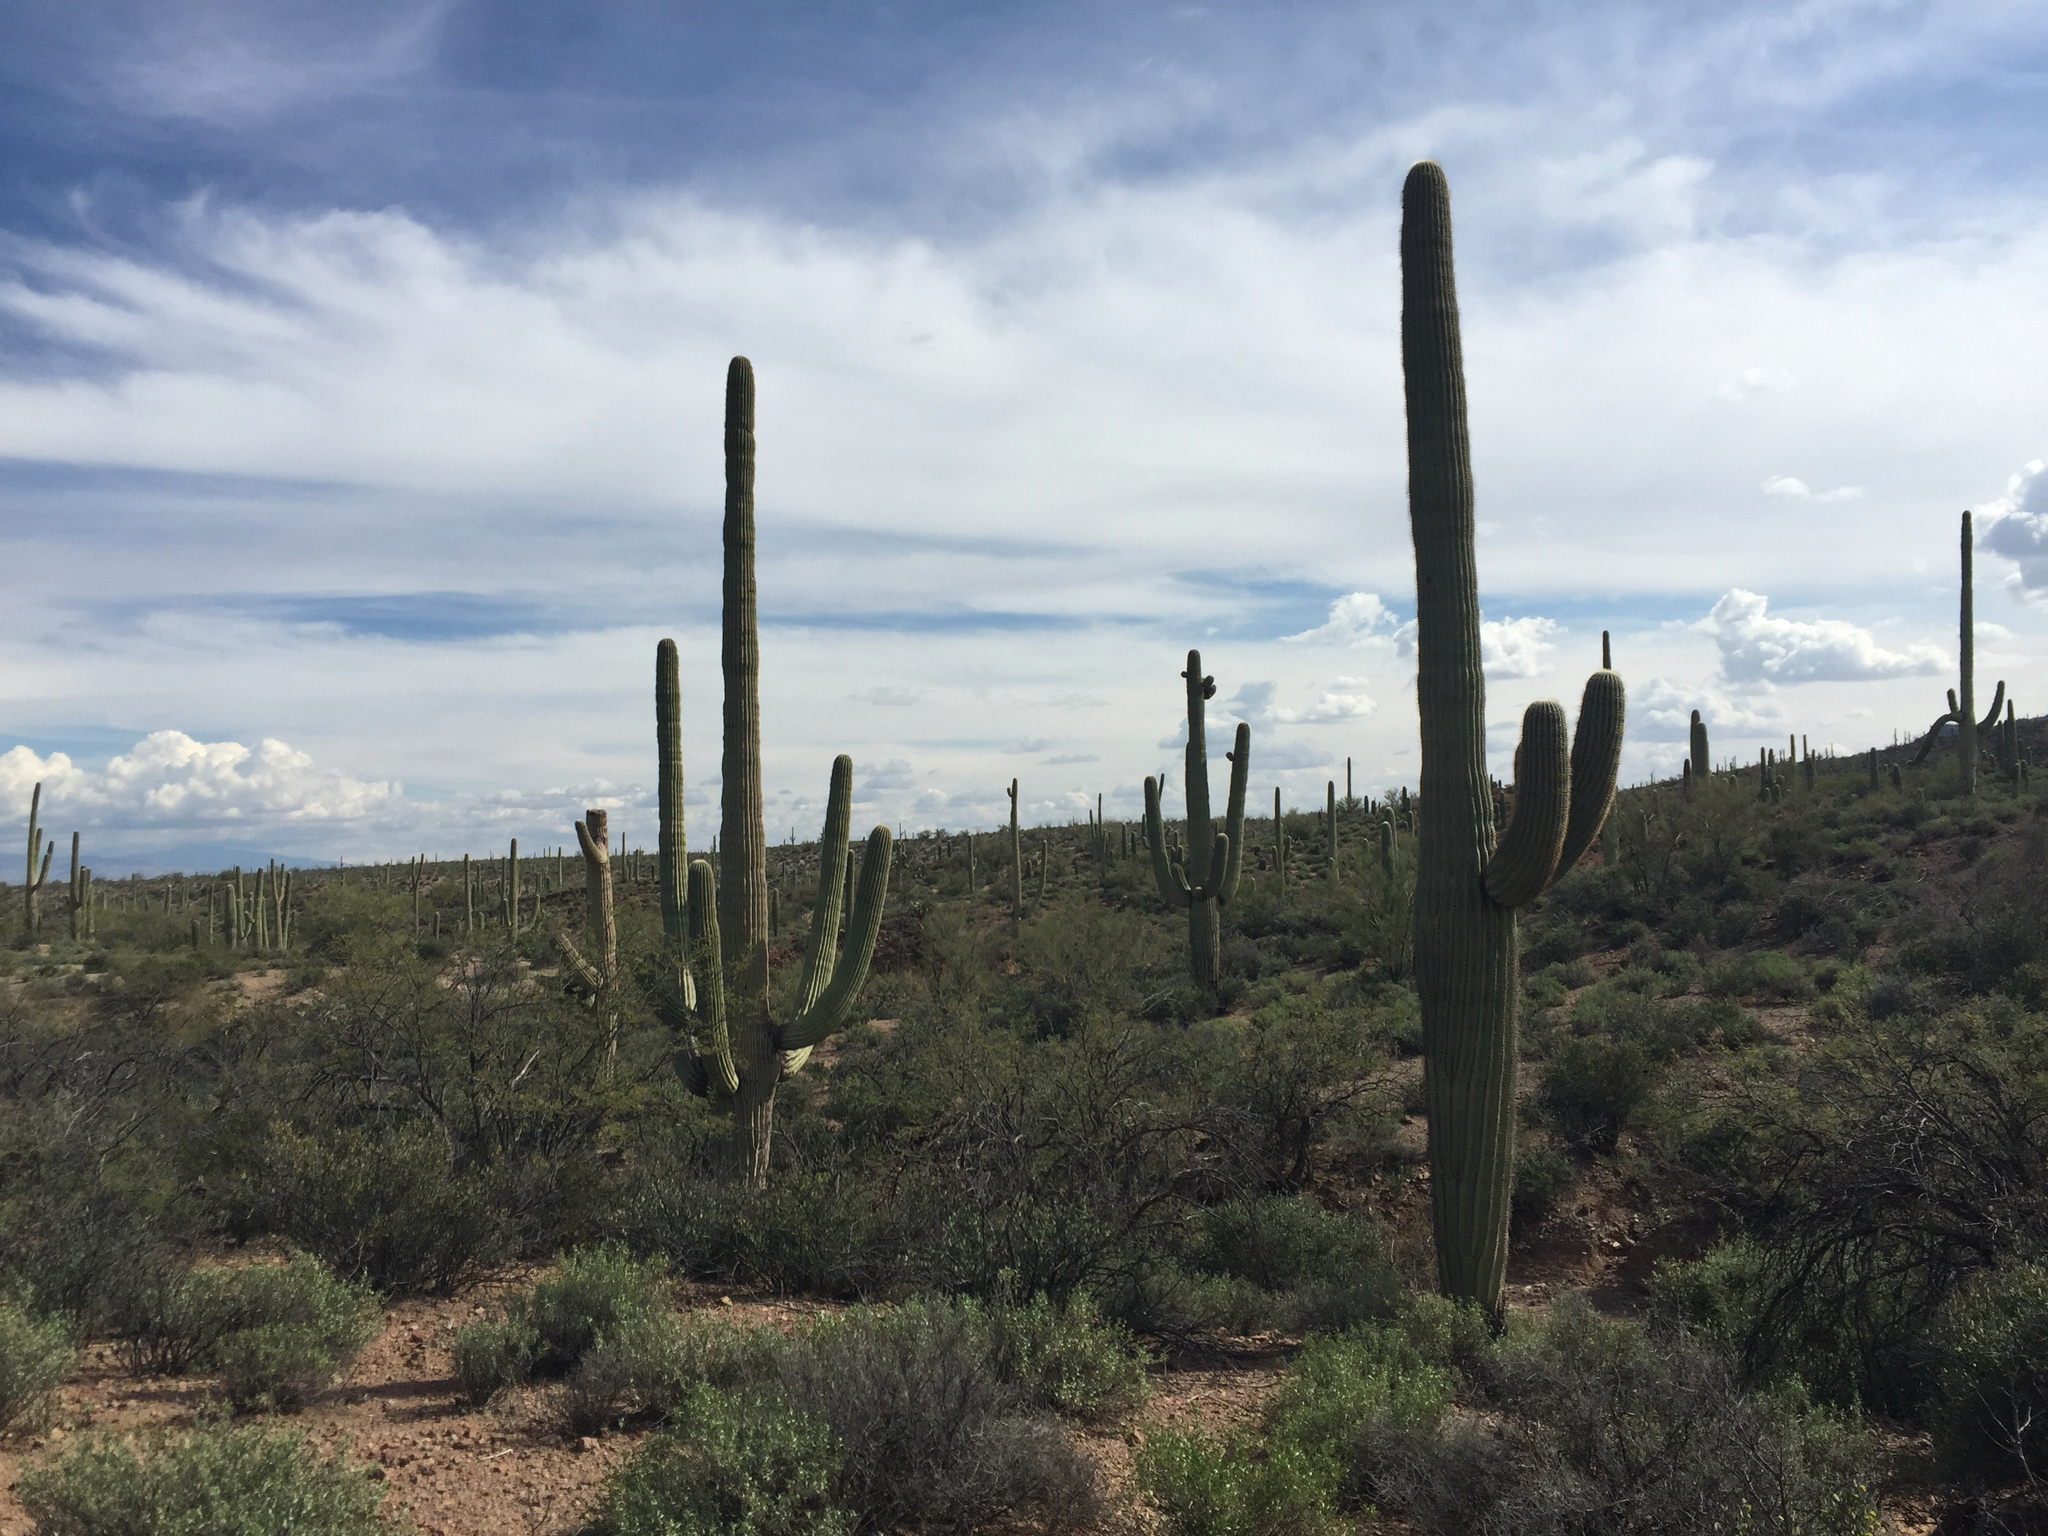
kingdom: Plantae
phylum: Tracheophyta
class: Magnoliopsida
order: Caryophyllales
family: Cactaceae
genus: Carnegiea
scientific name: Carnegiea gigantea
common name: Saguaro
